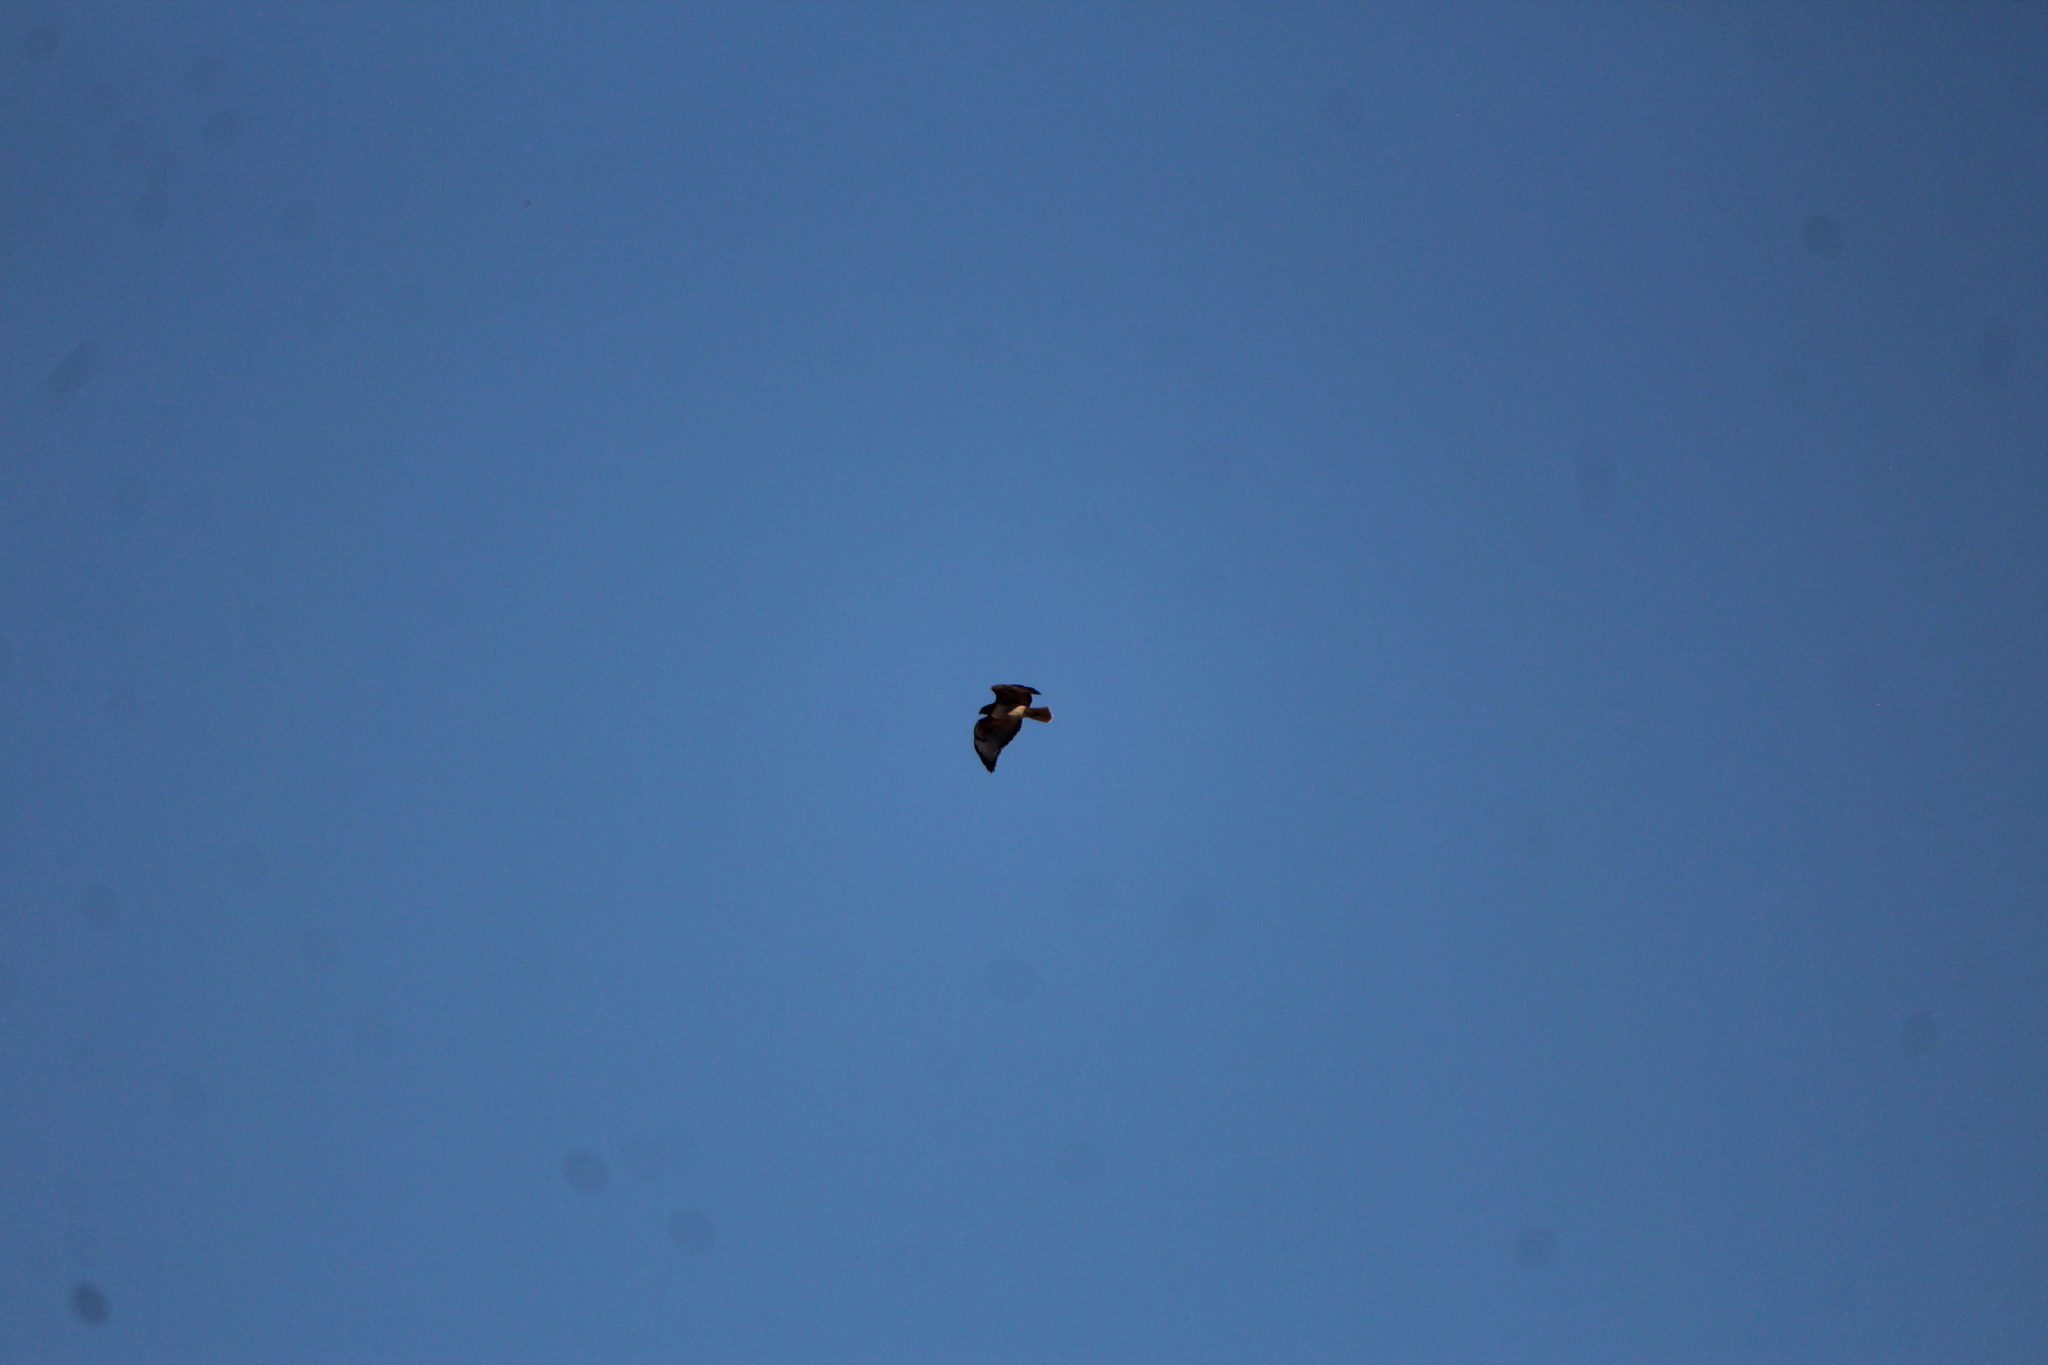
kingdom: Animalia
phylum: Chordata
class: Aves
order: Accipitriformes
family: Accipitridae
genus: Buteo
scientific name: Buteo jamaicensis
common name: Red-tailed hawk
